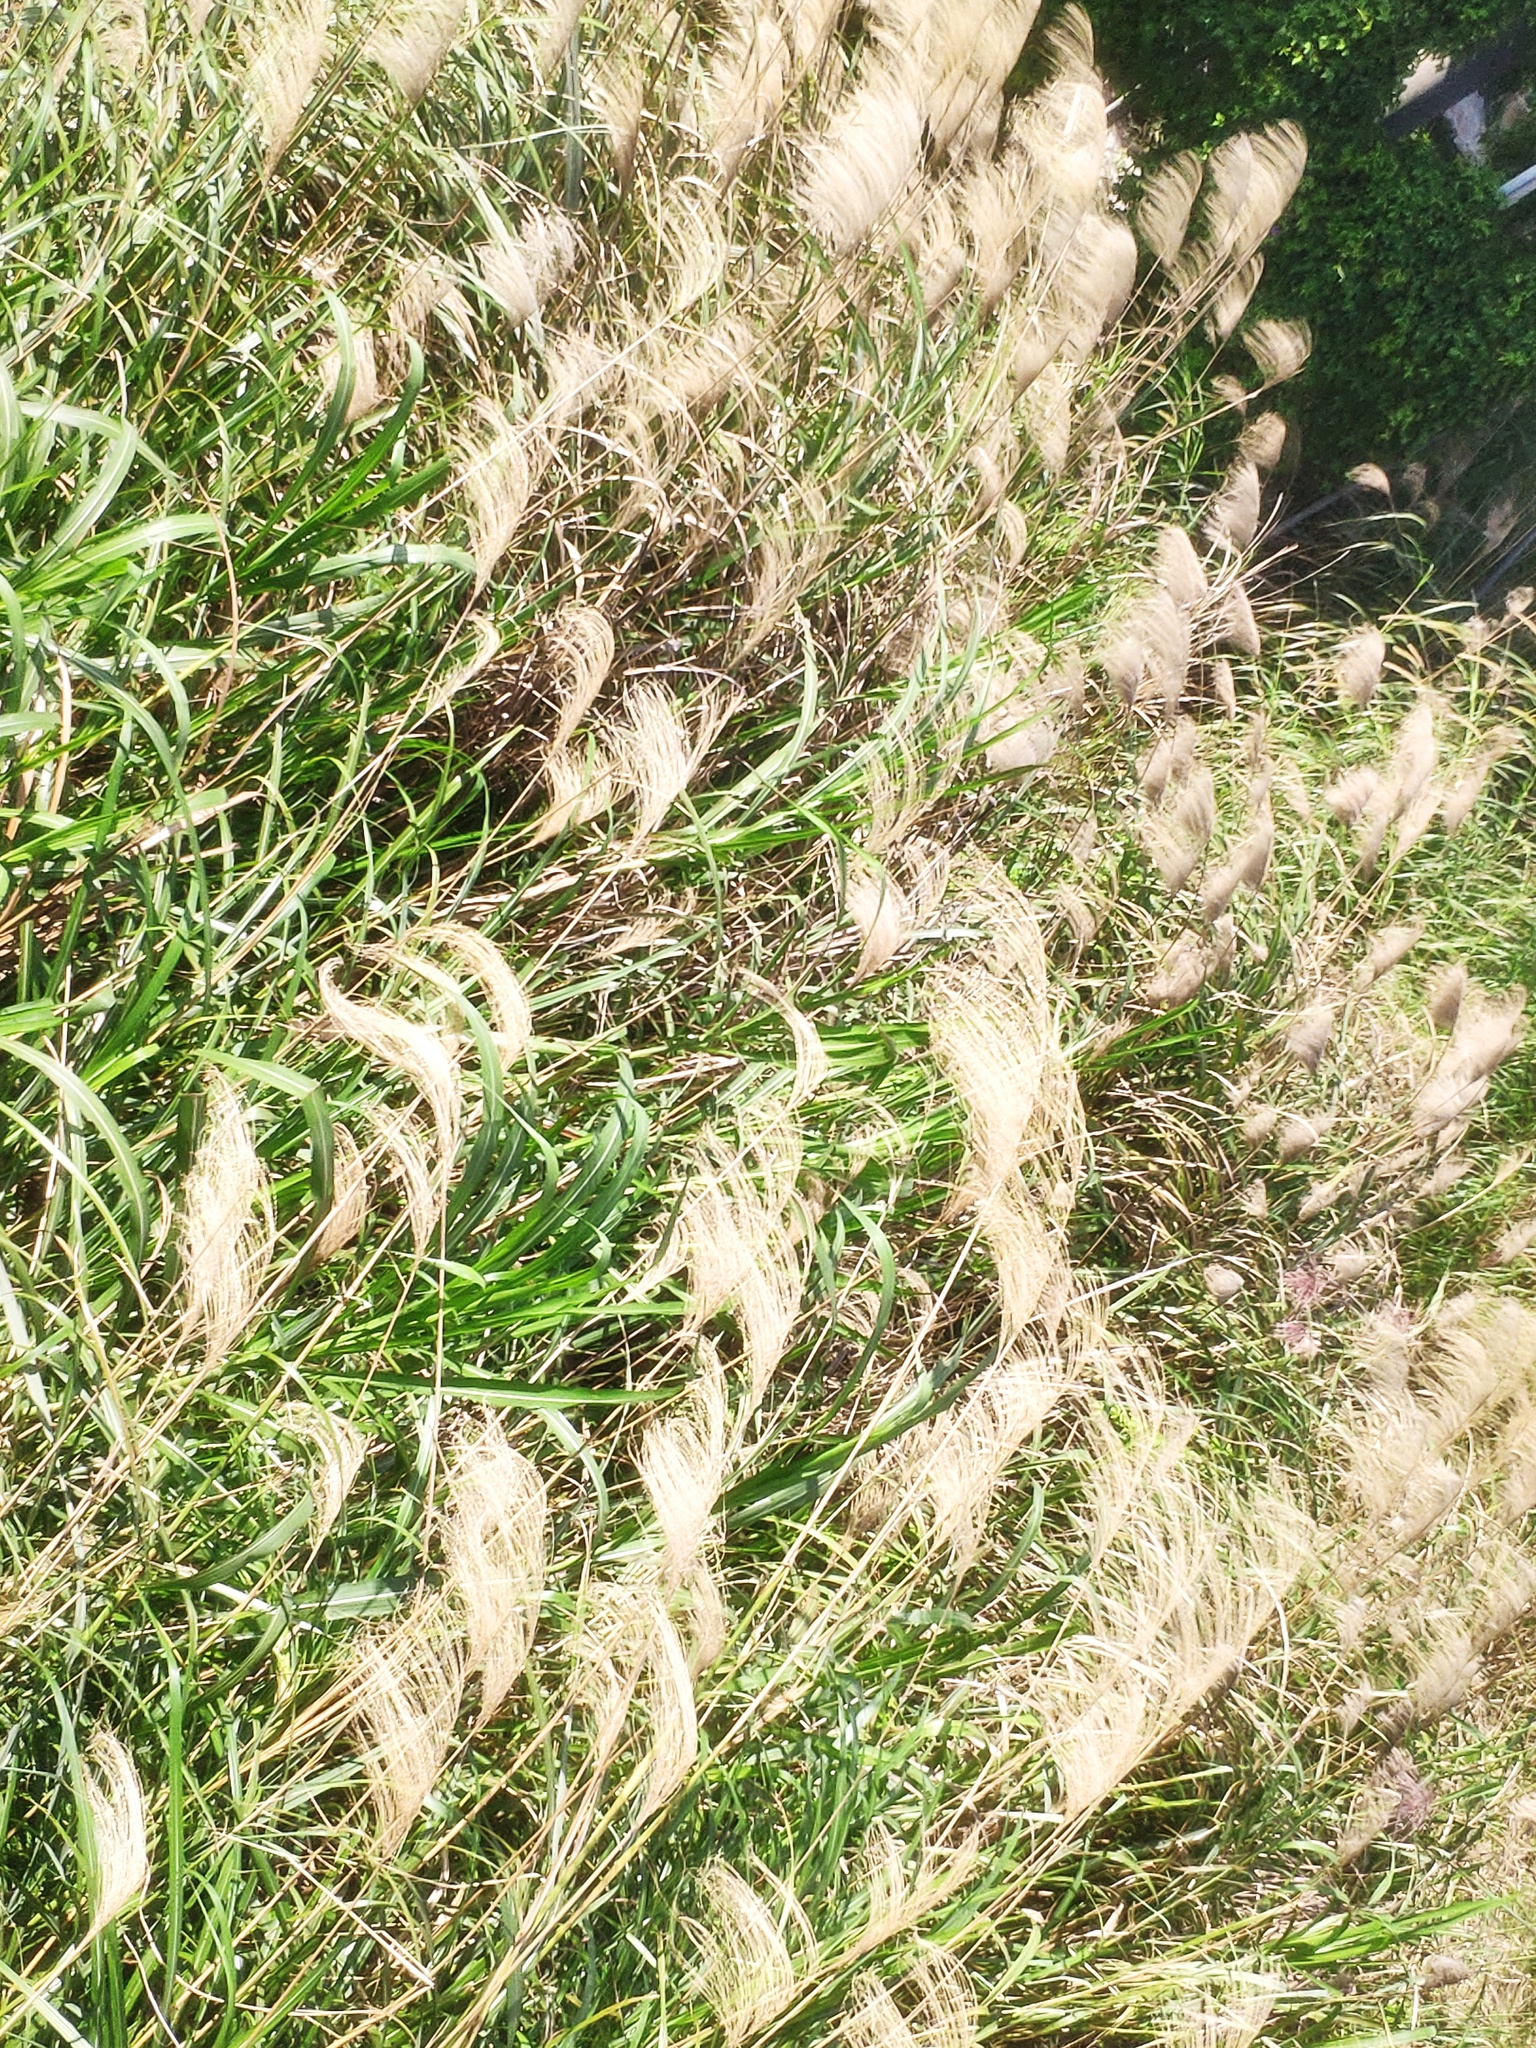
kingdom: Plantae
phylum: Tracheophyta
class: Liliopsida
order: Poales
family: Poaceae
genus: Miscanthus
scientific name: Miscanthus sinensis
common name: Chinese silvergrass
